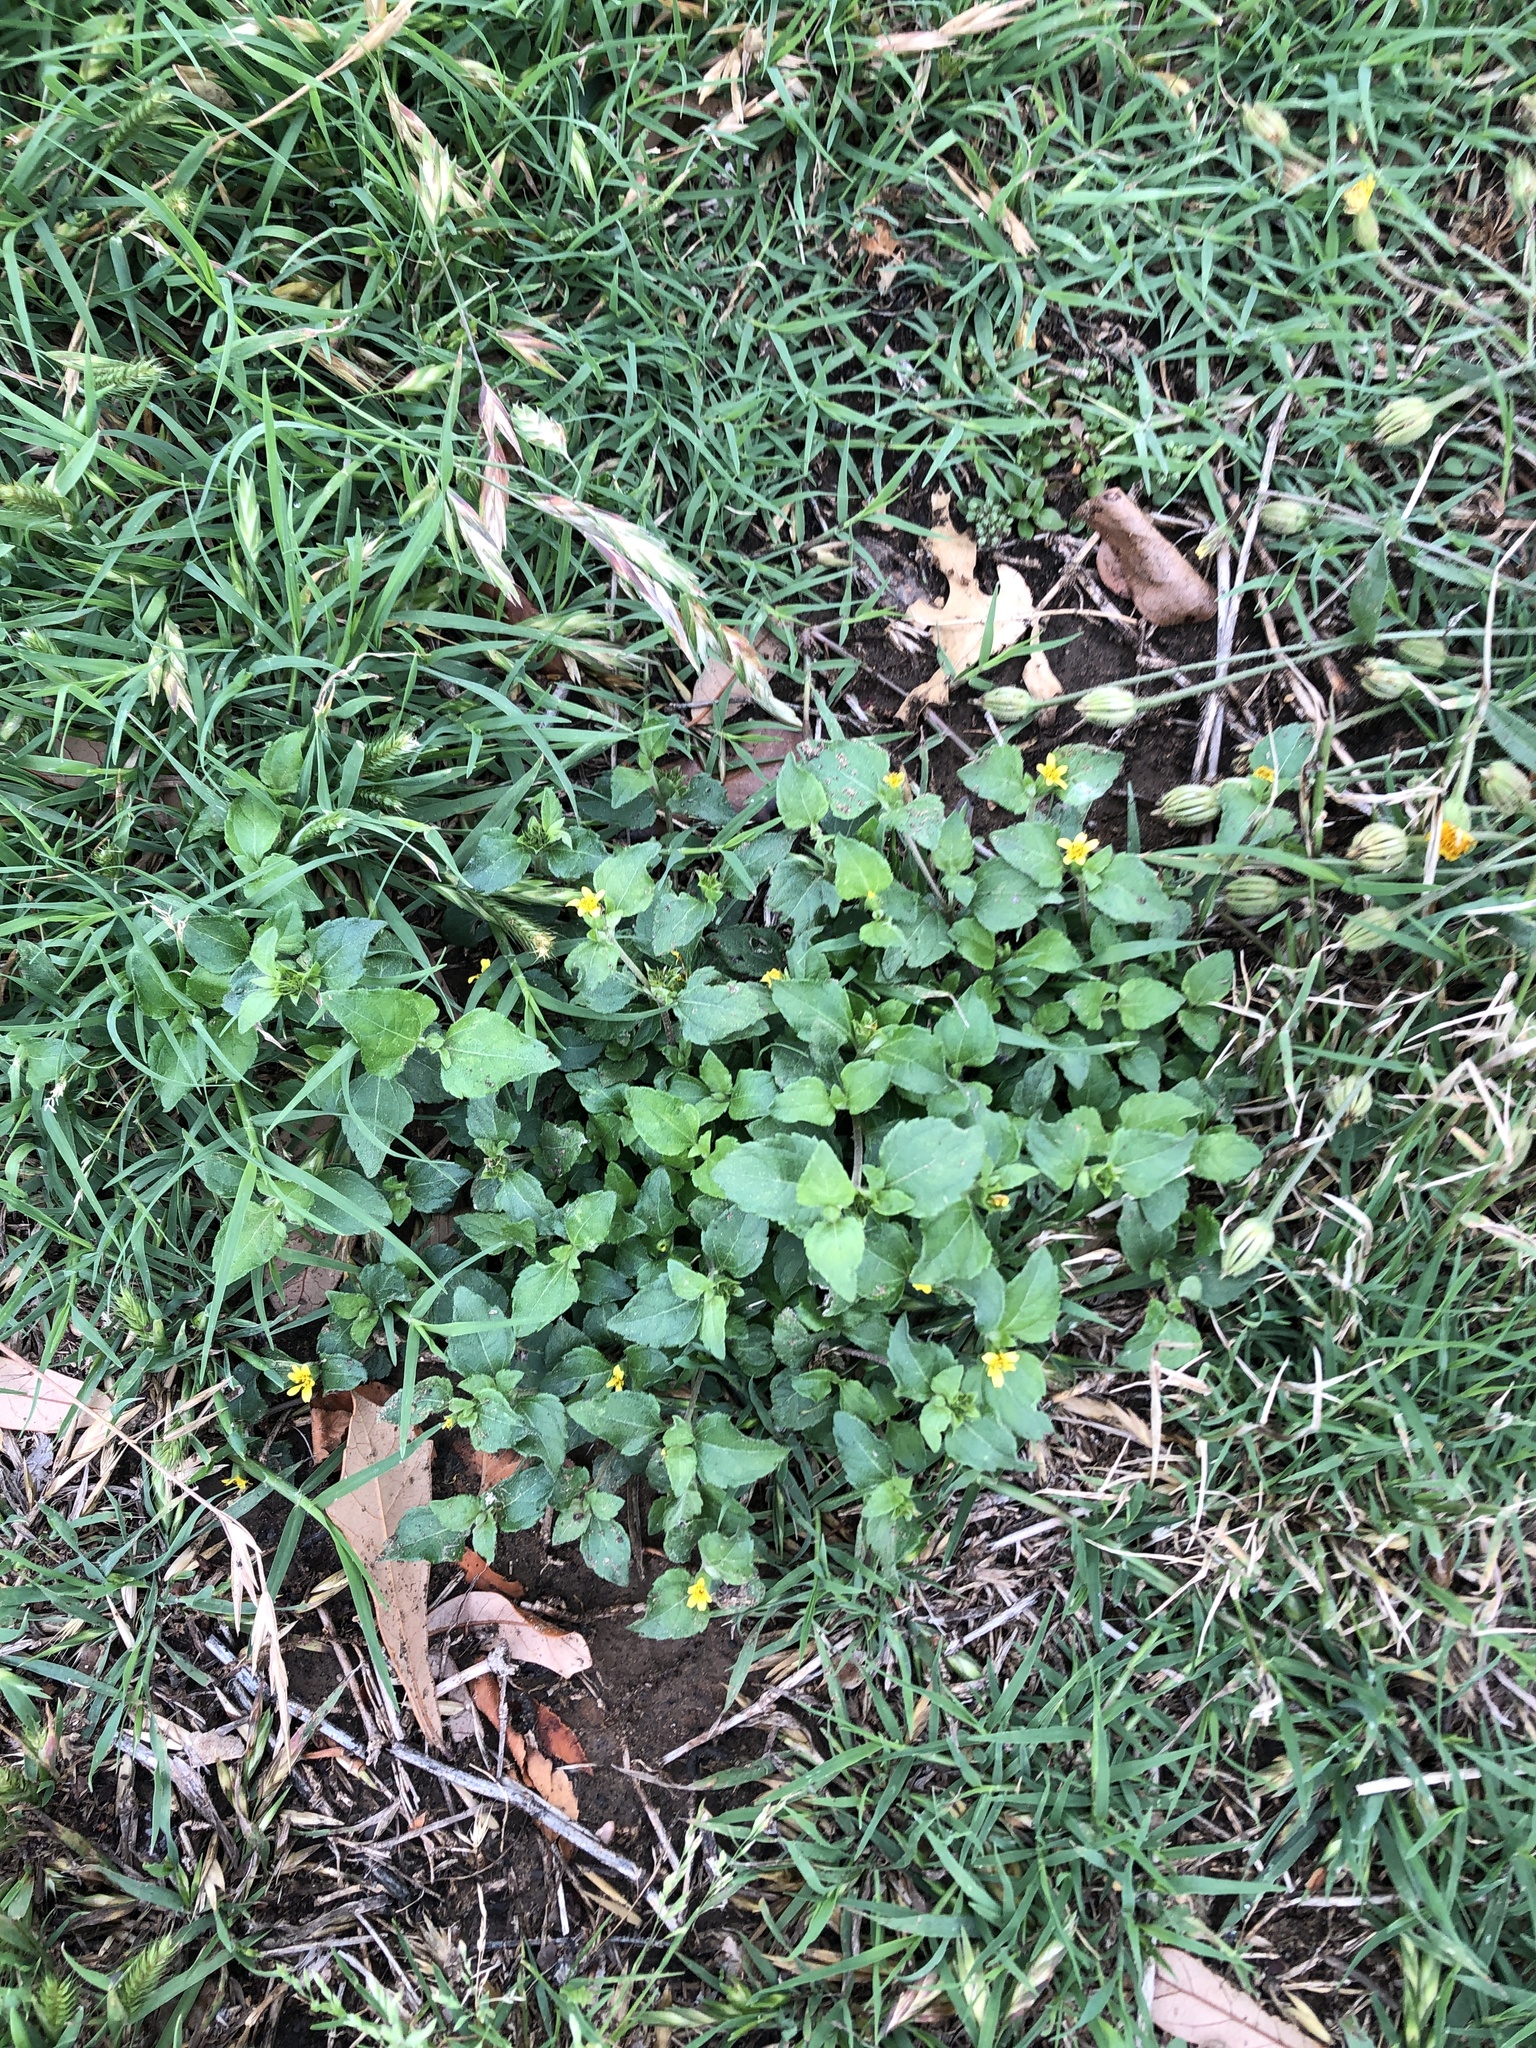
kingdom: Plantae
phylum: Tracheophyta
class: Magnoliopsida
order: Asterales
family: Asteraceae
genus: Calyptocarpus
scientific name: Calyptocarpus vialis
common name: Straggler daisy
